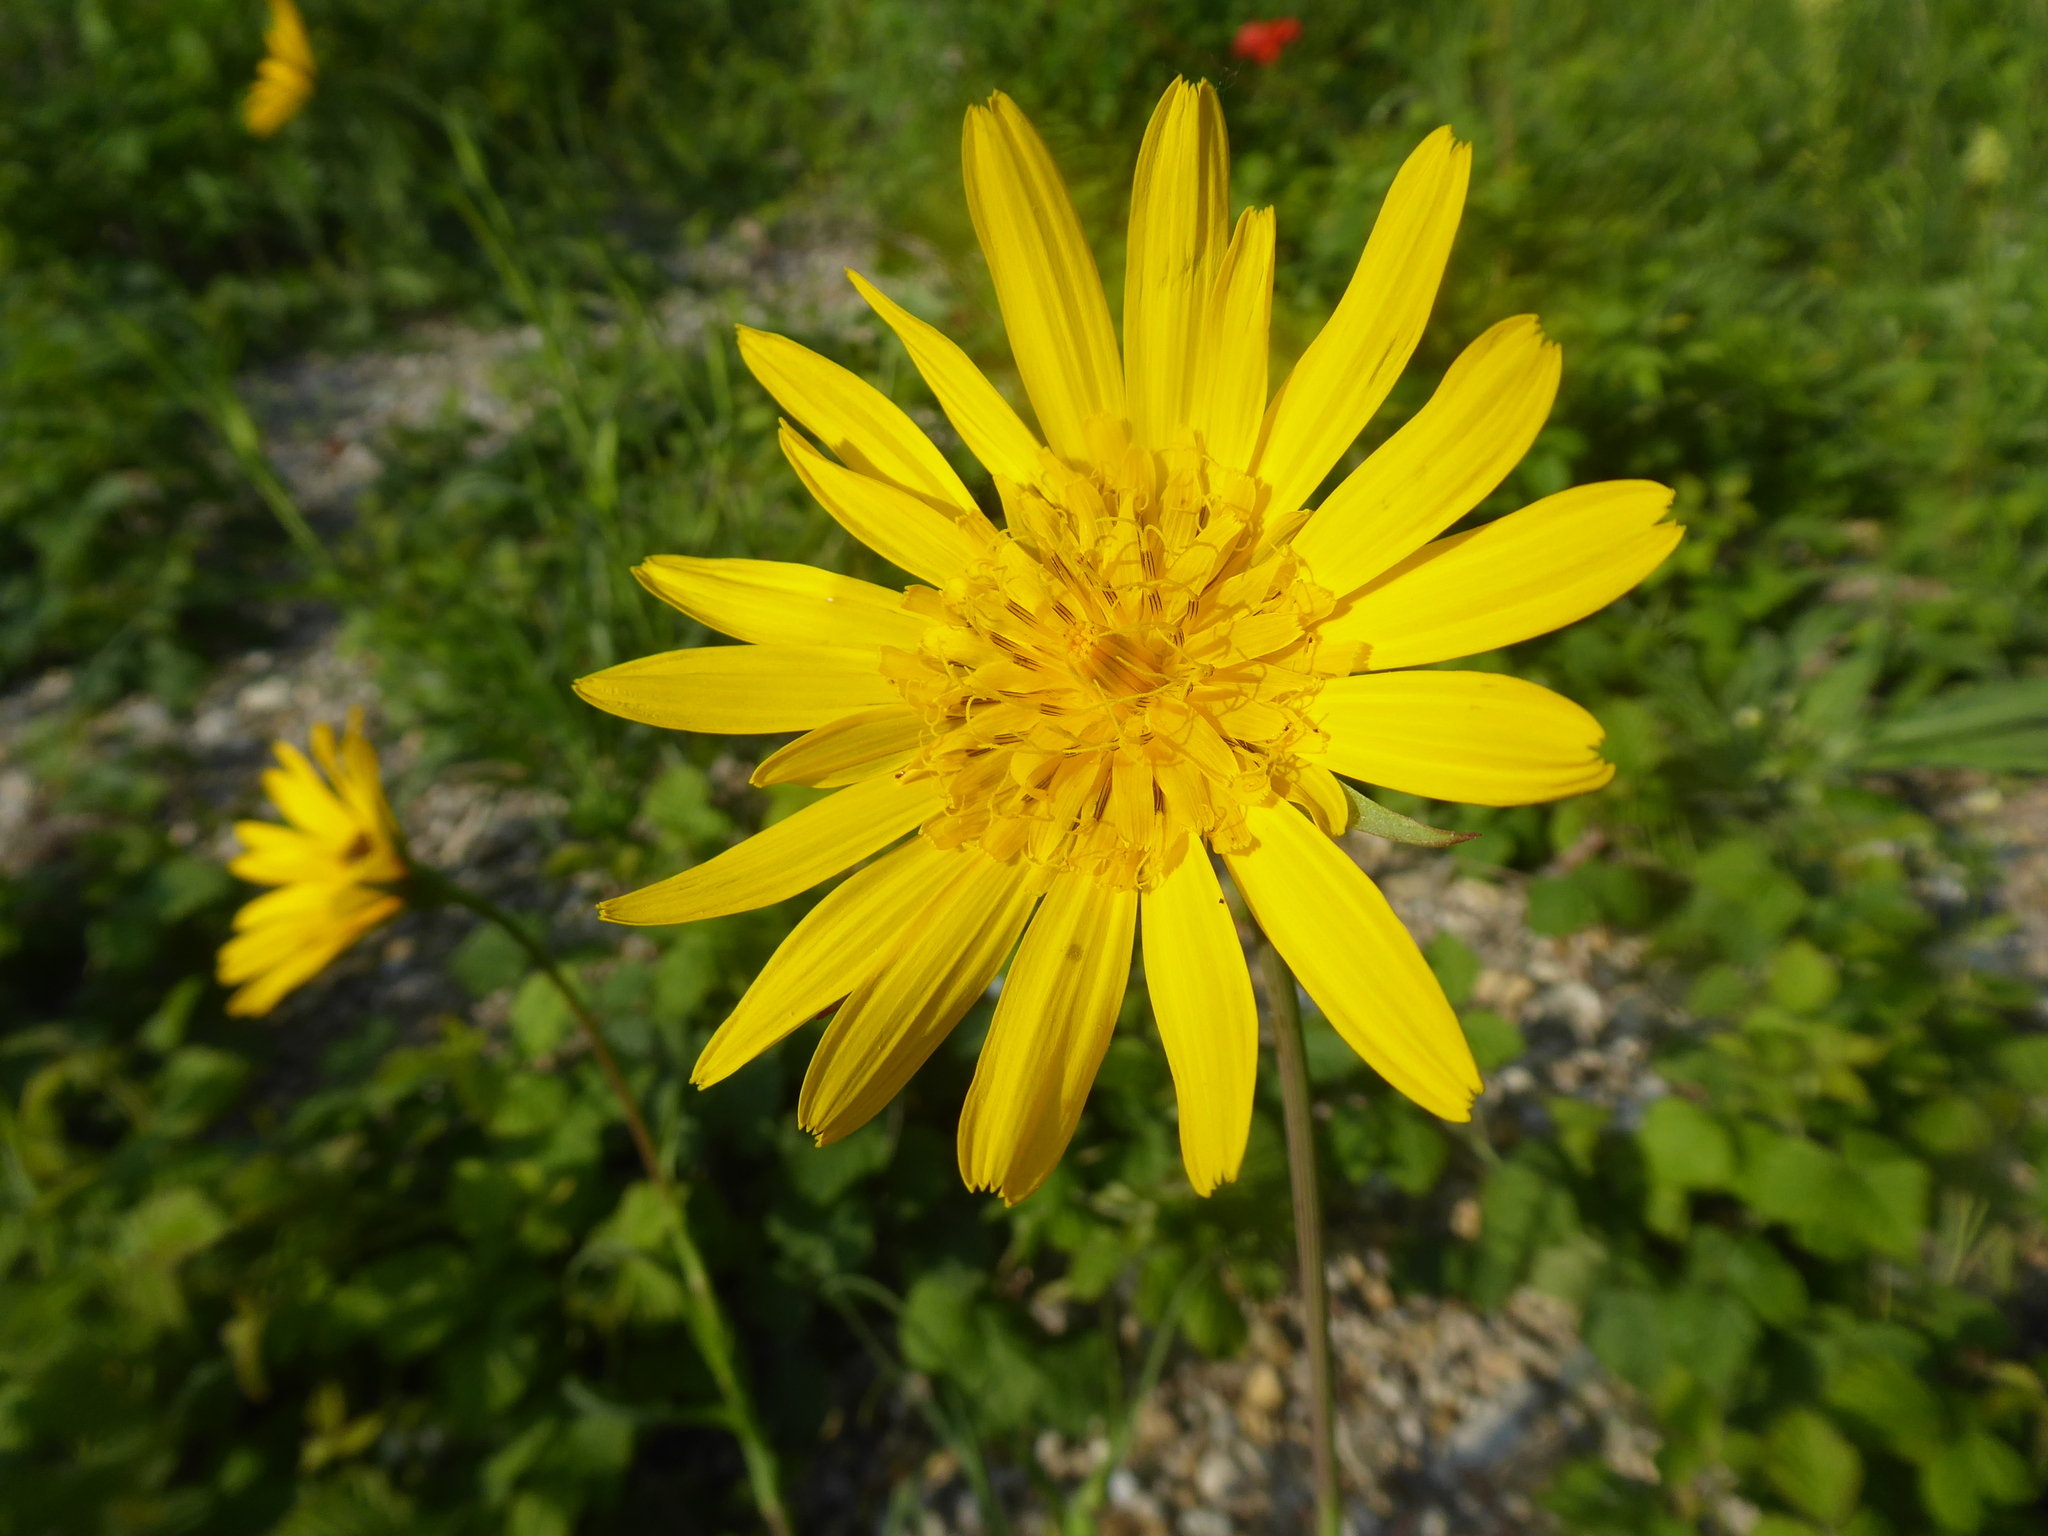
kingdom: Plantae
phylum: Tracheophyta
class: Magnoliopsida
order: Asterales
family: Asteraceae
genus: Tragopogon
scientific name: Tragopogon orientalis
